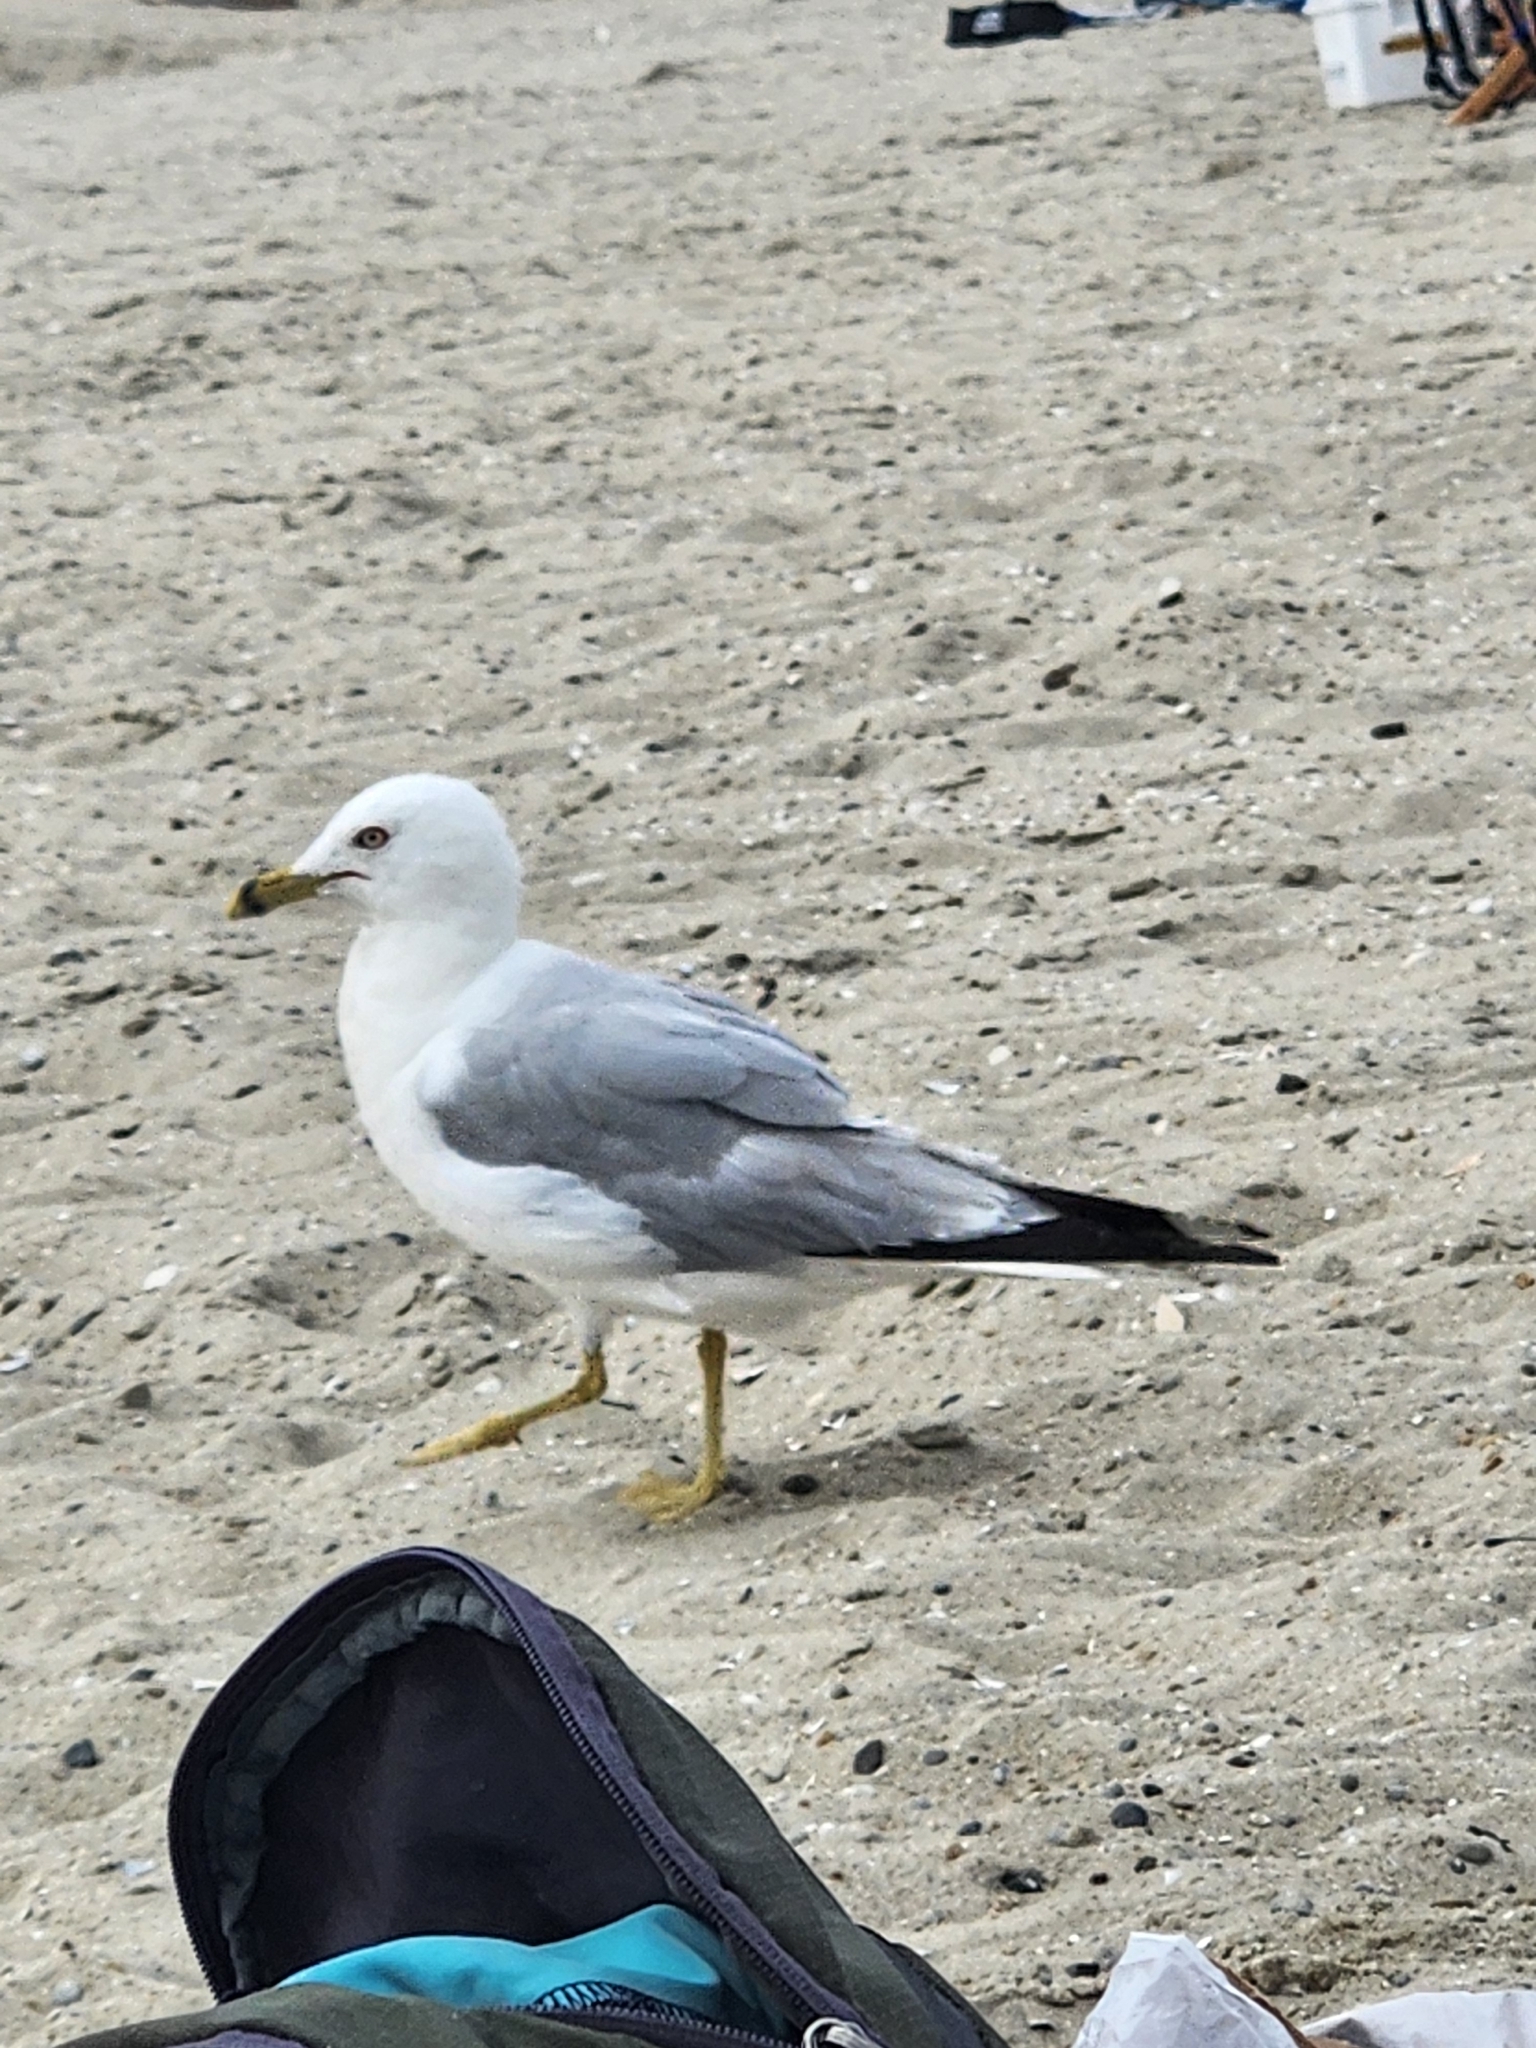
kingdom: Animalia
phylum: Chordata
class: Aves
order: Charadriiformes
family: Laridae
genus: Larus
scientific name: Larus delawarensis
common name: Ring-billed gull
